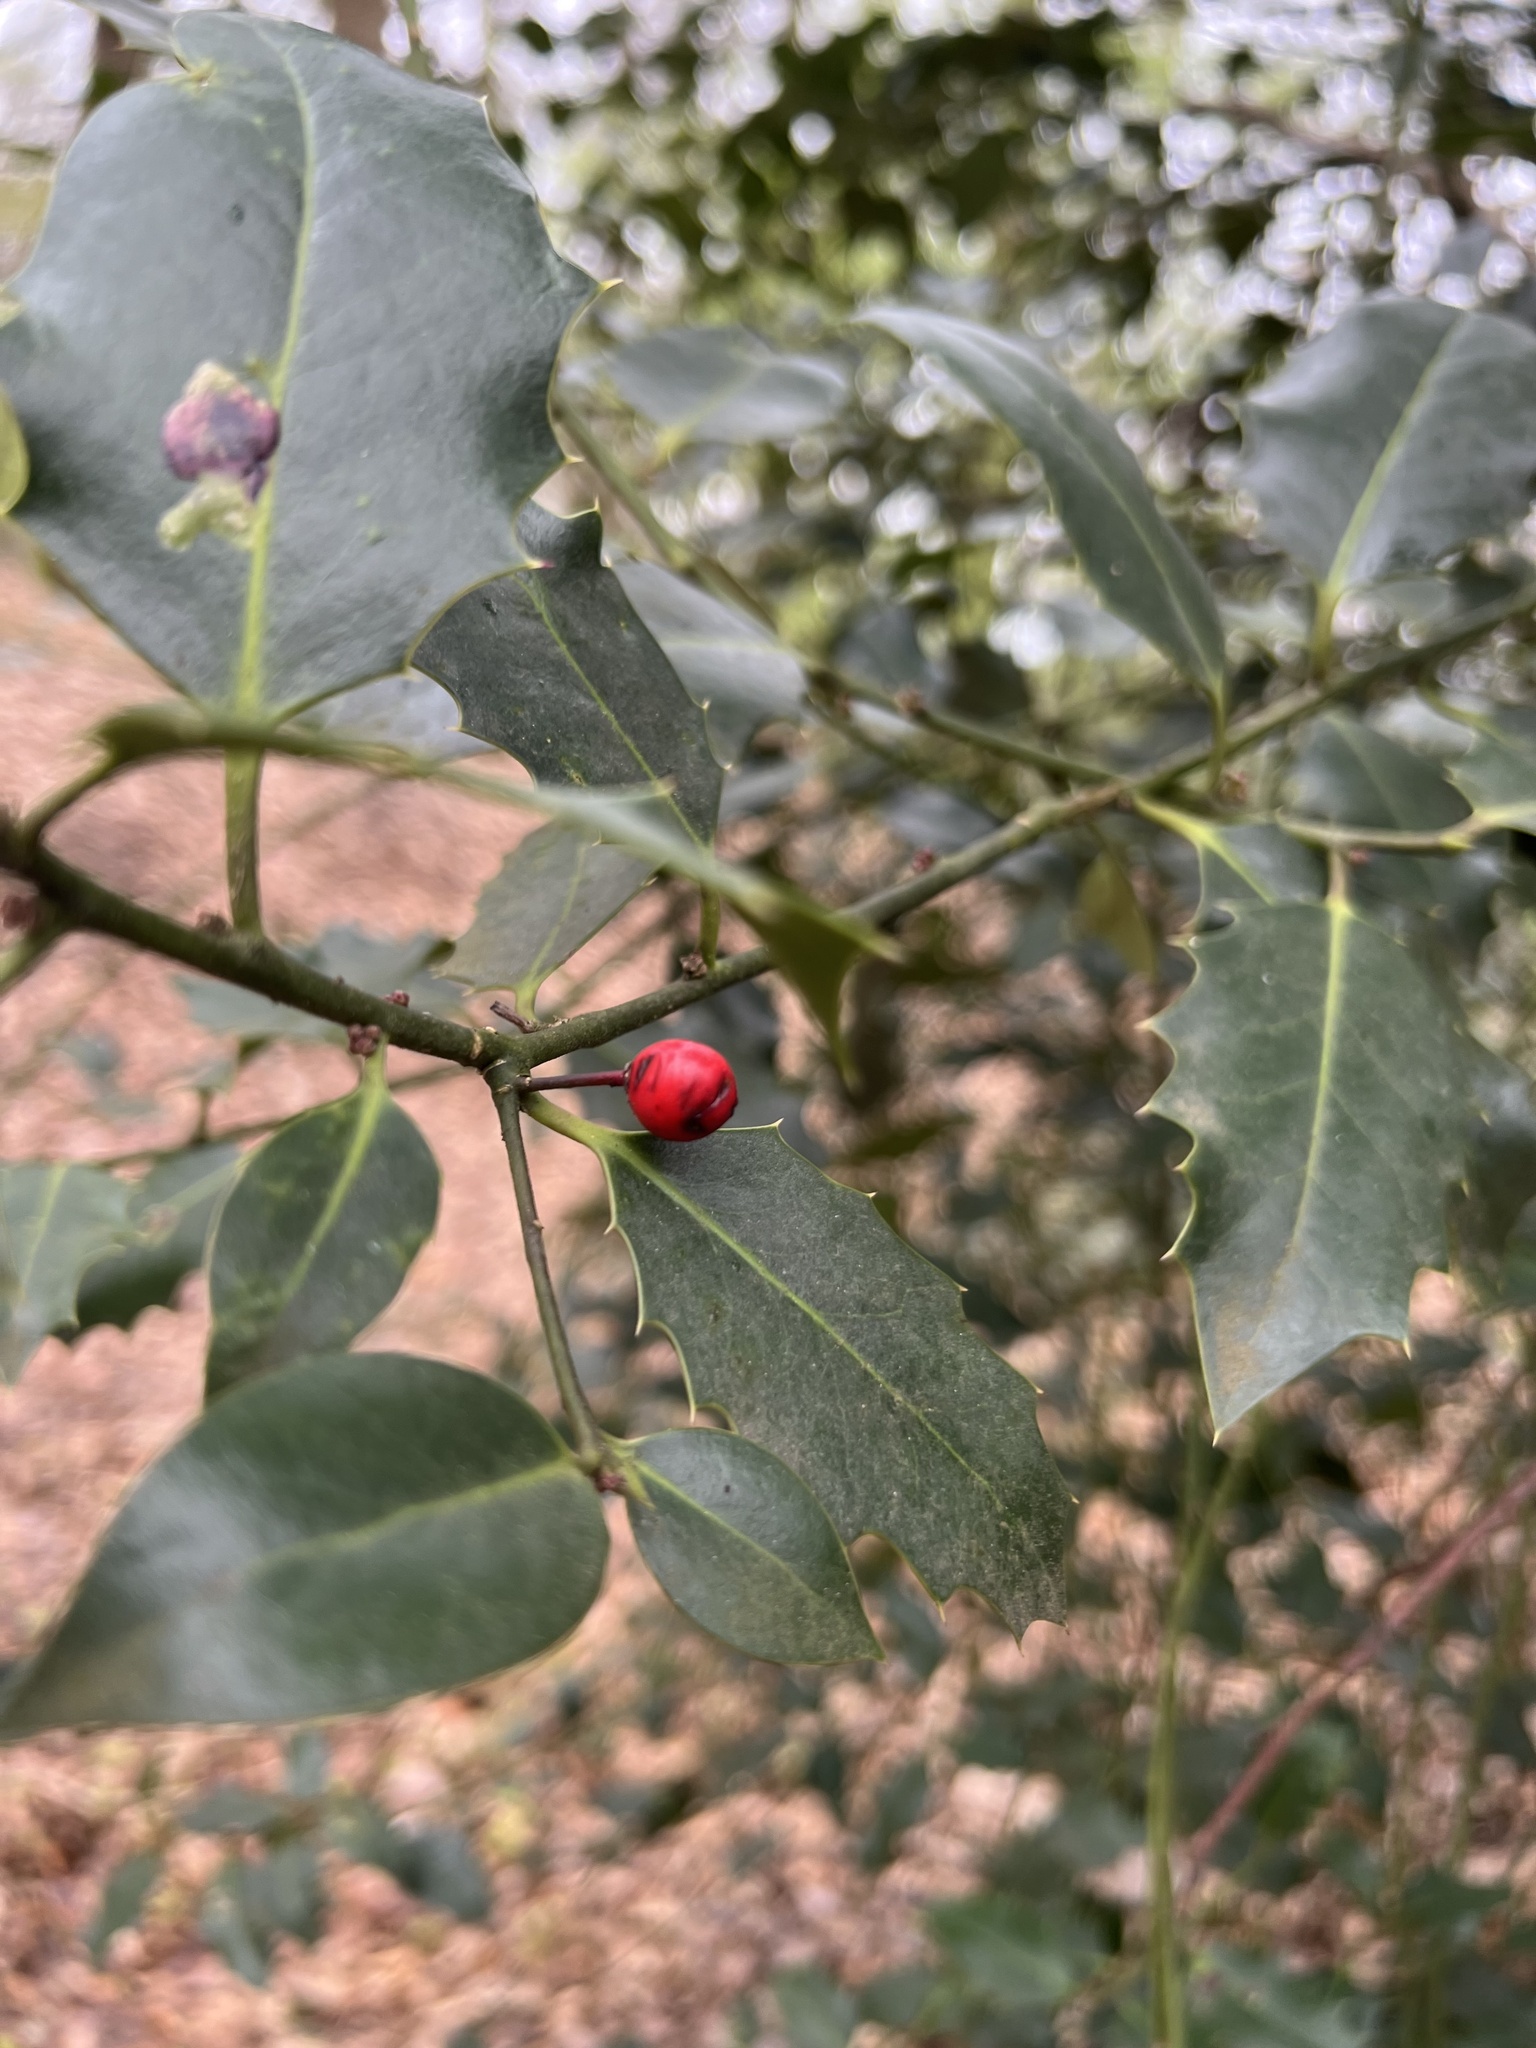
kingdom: Plantae
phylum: Tracheophyta
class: Magnoliopsida
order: Aquifoliales
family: Aquifoliaceae
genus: Ilex
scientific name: Ilex aquifolium
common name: English holly
